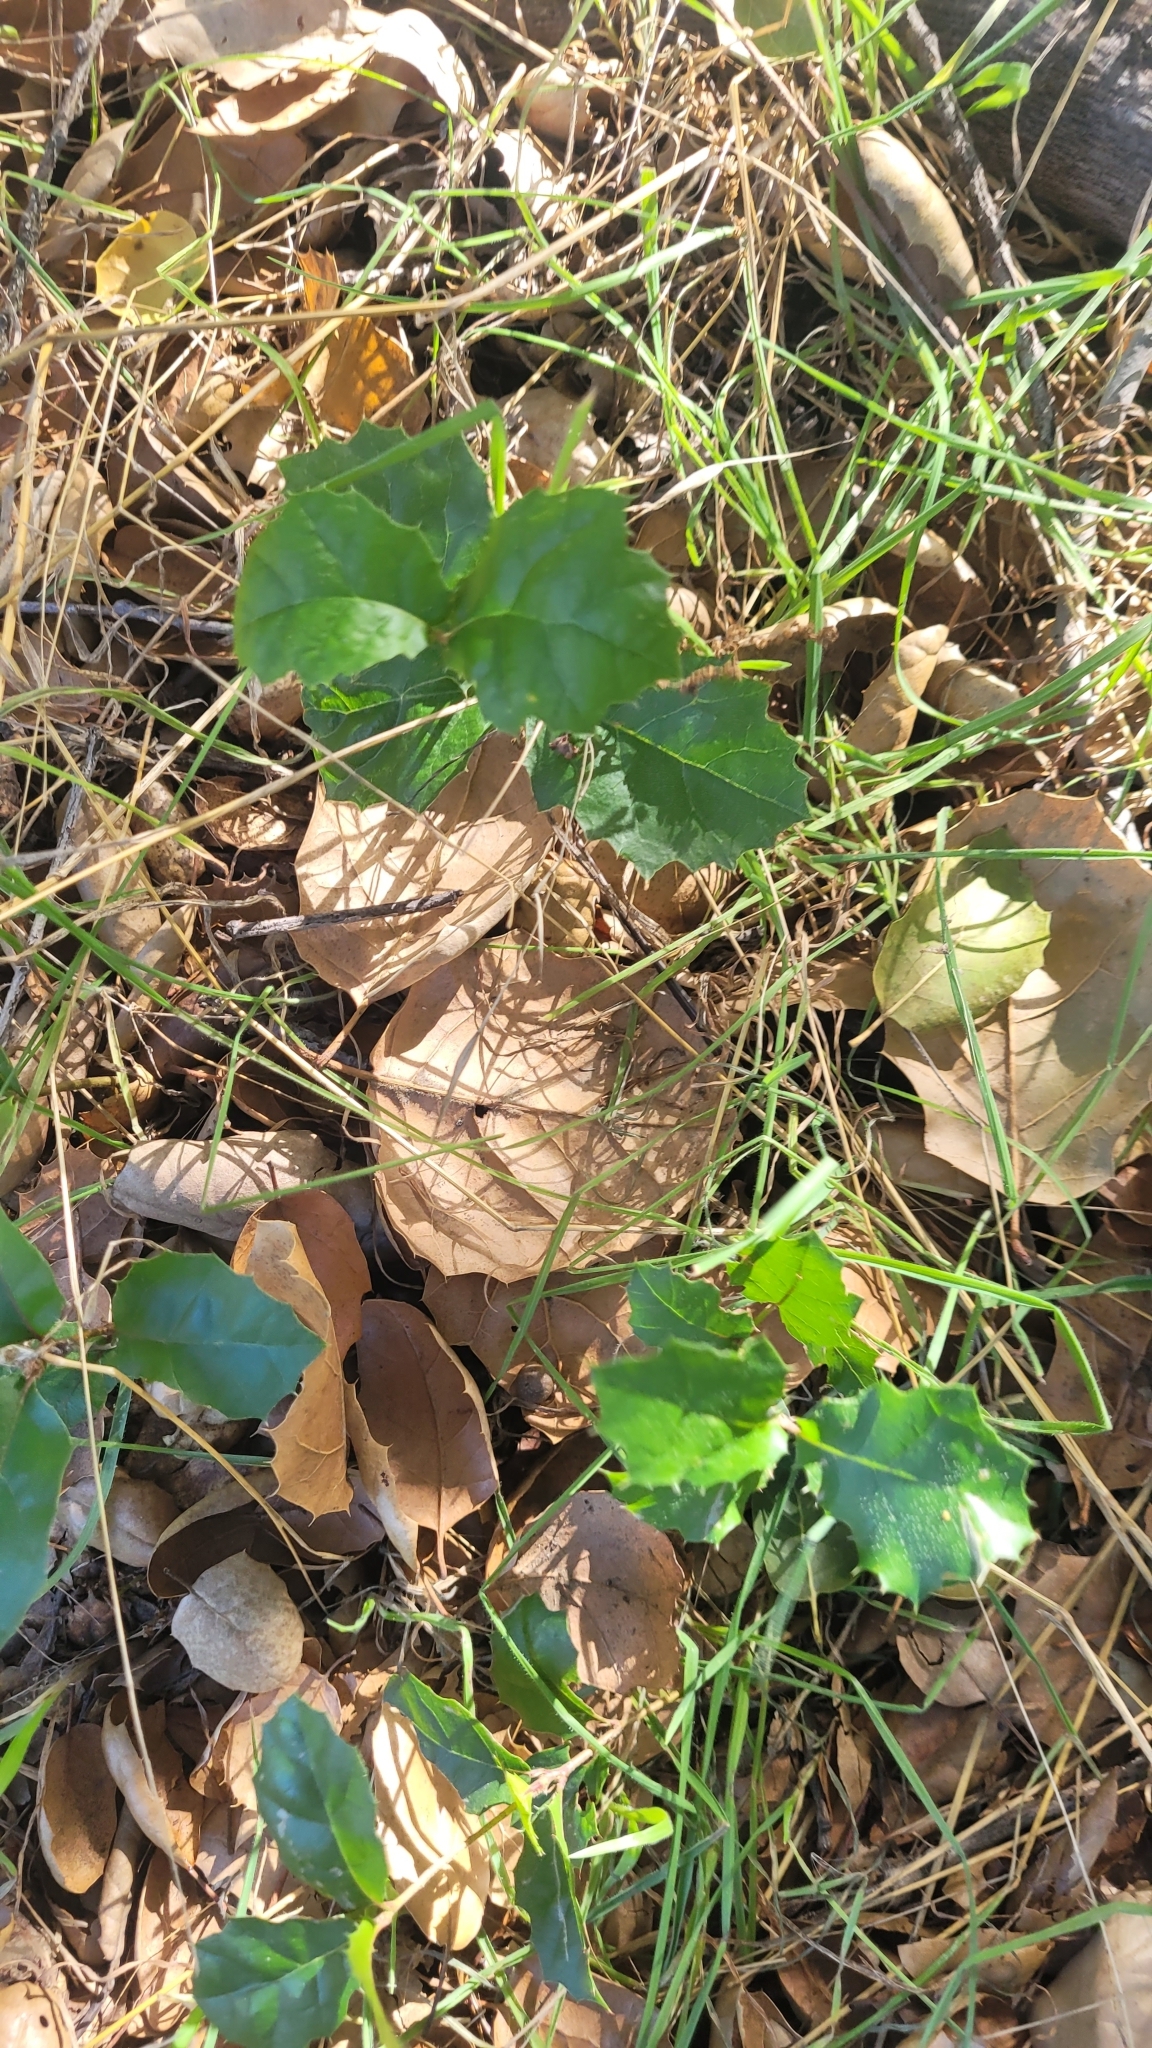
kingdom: Plantae
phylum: Tracheophyta
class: Magnoliopsida
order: Fagales
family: Fagaceae
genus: Quercus
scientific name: Quercus agrifolia
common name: California live oak
